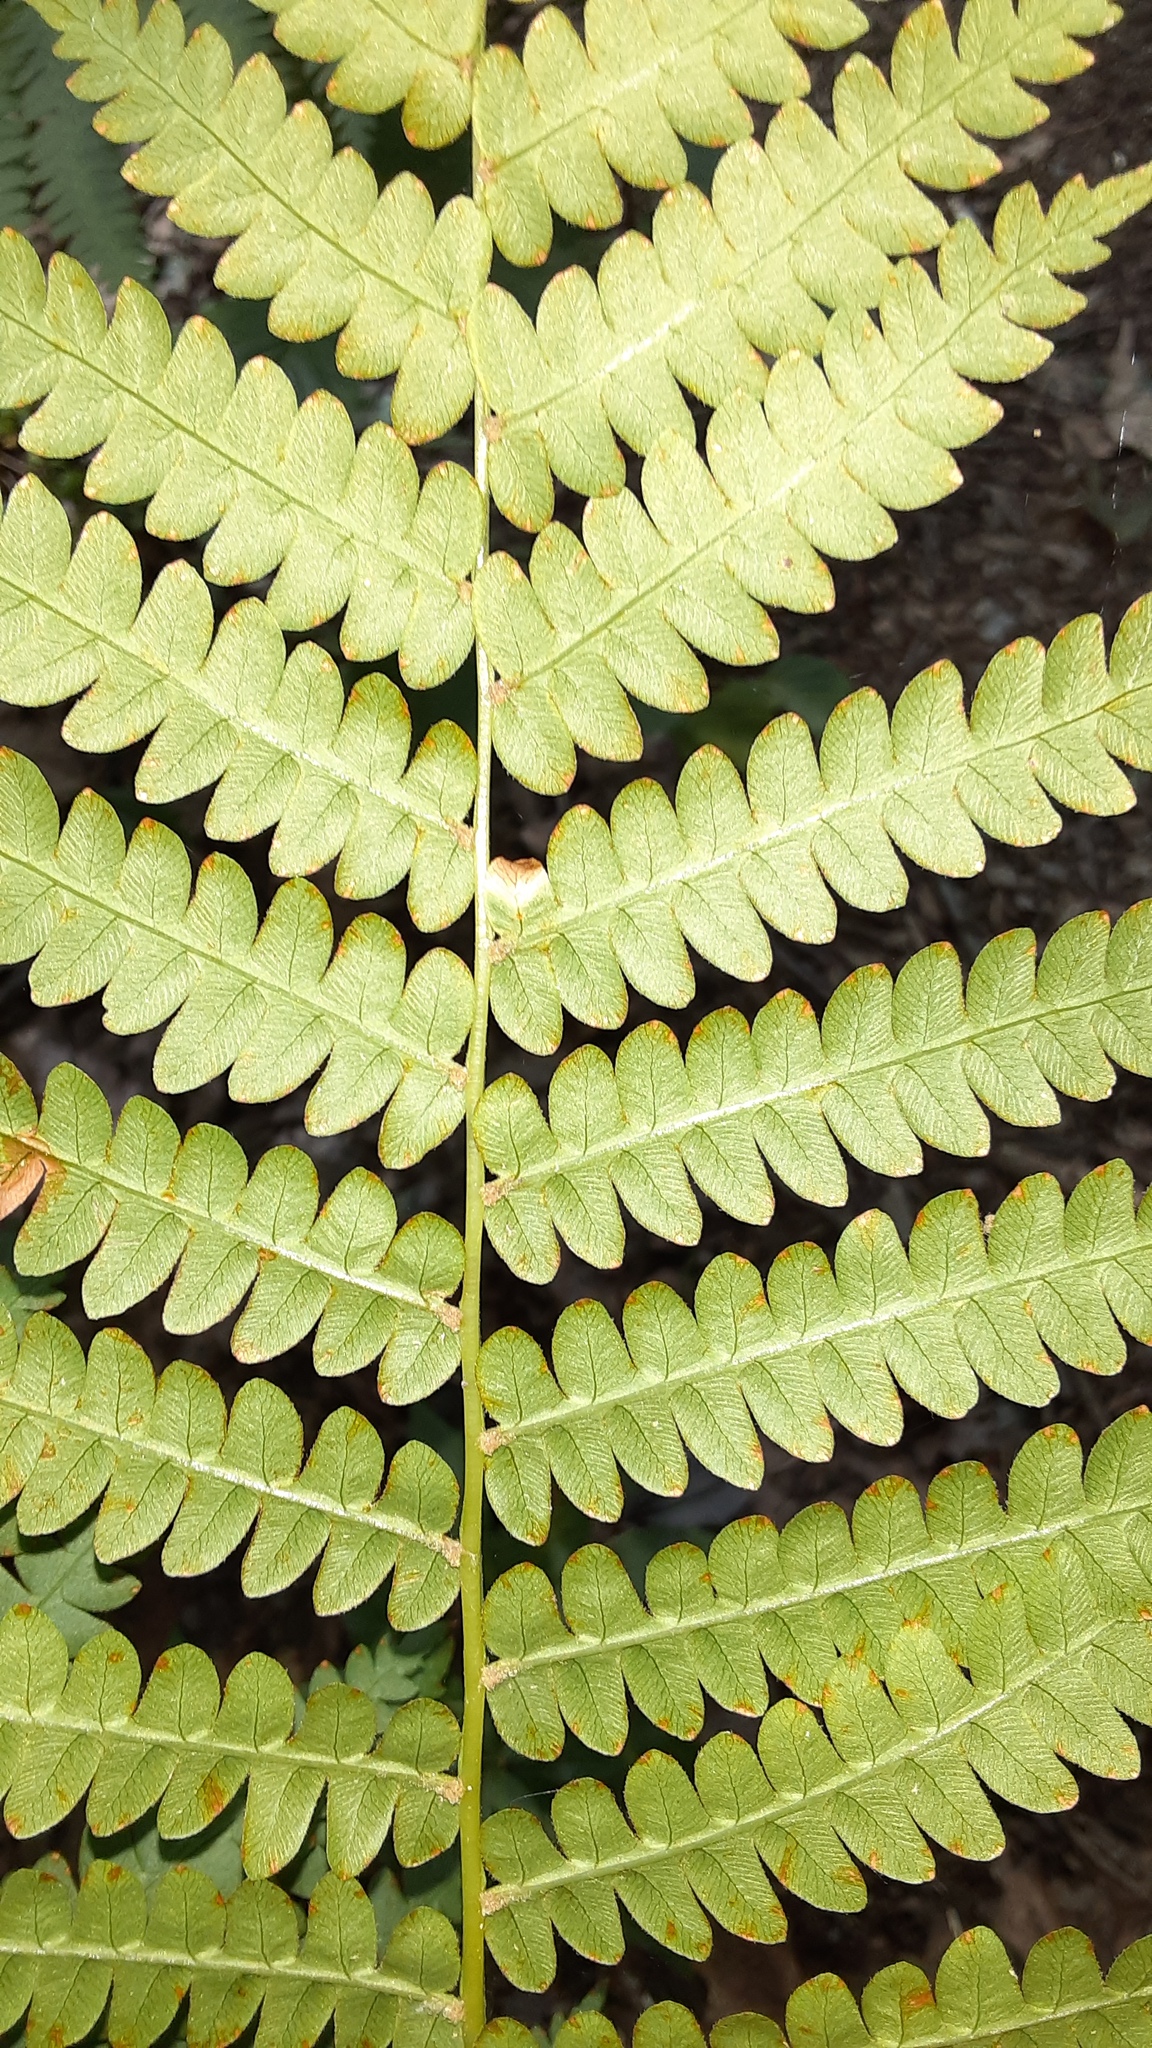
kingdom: Plantae
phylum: Tracheophyta
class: Polypodiopsida
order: Osmundales
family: Osmundaceae
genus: Osmundastrum
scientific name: Osmundastrum cinnamomeum
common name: Cinnamon fern
